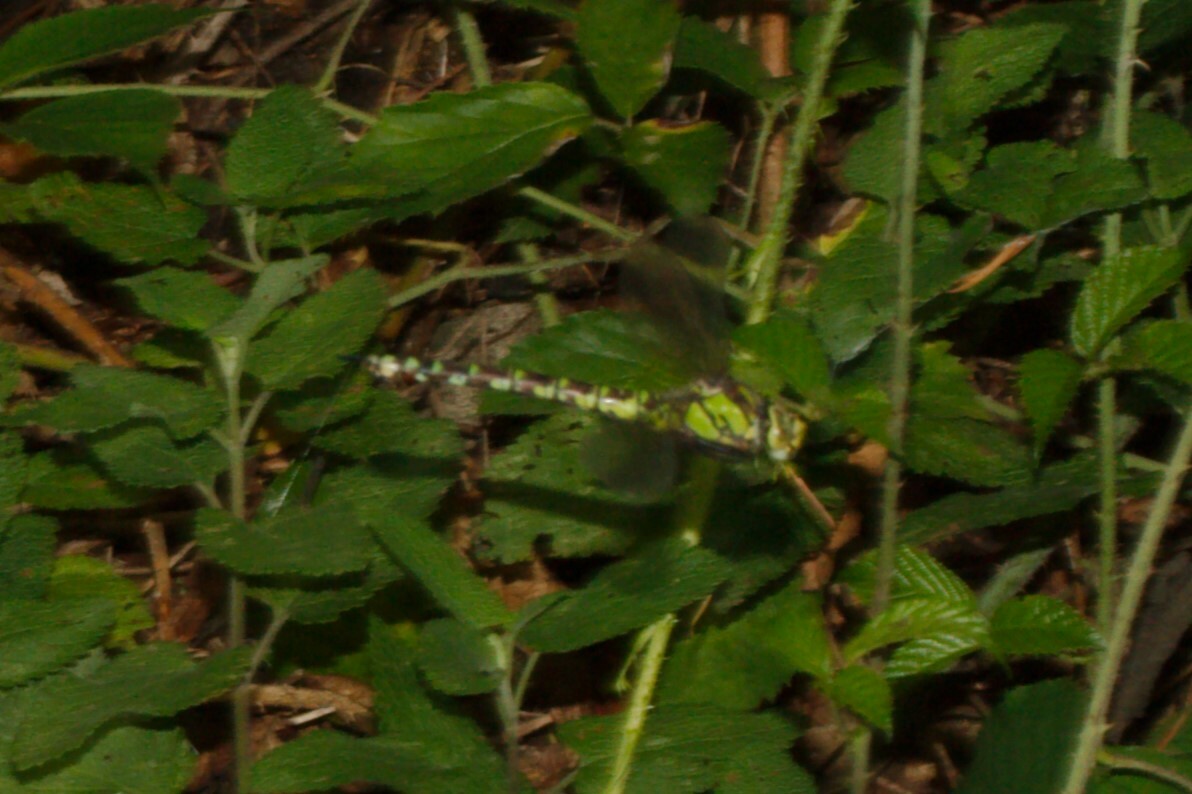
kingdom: Animalia
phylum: Arthropoda
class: Insecta
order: Odonata
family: Aeshnidae
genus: Aeshna
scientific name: Aeshna cyanea
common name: Southern hawker
